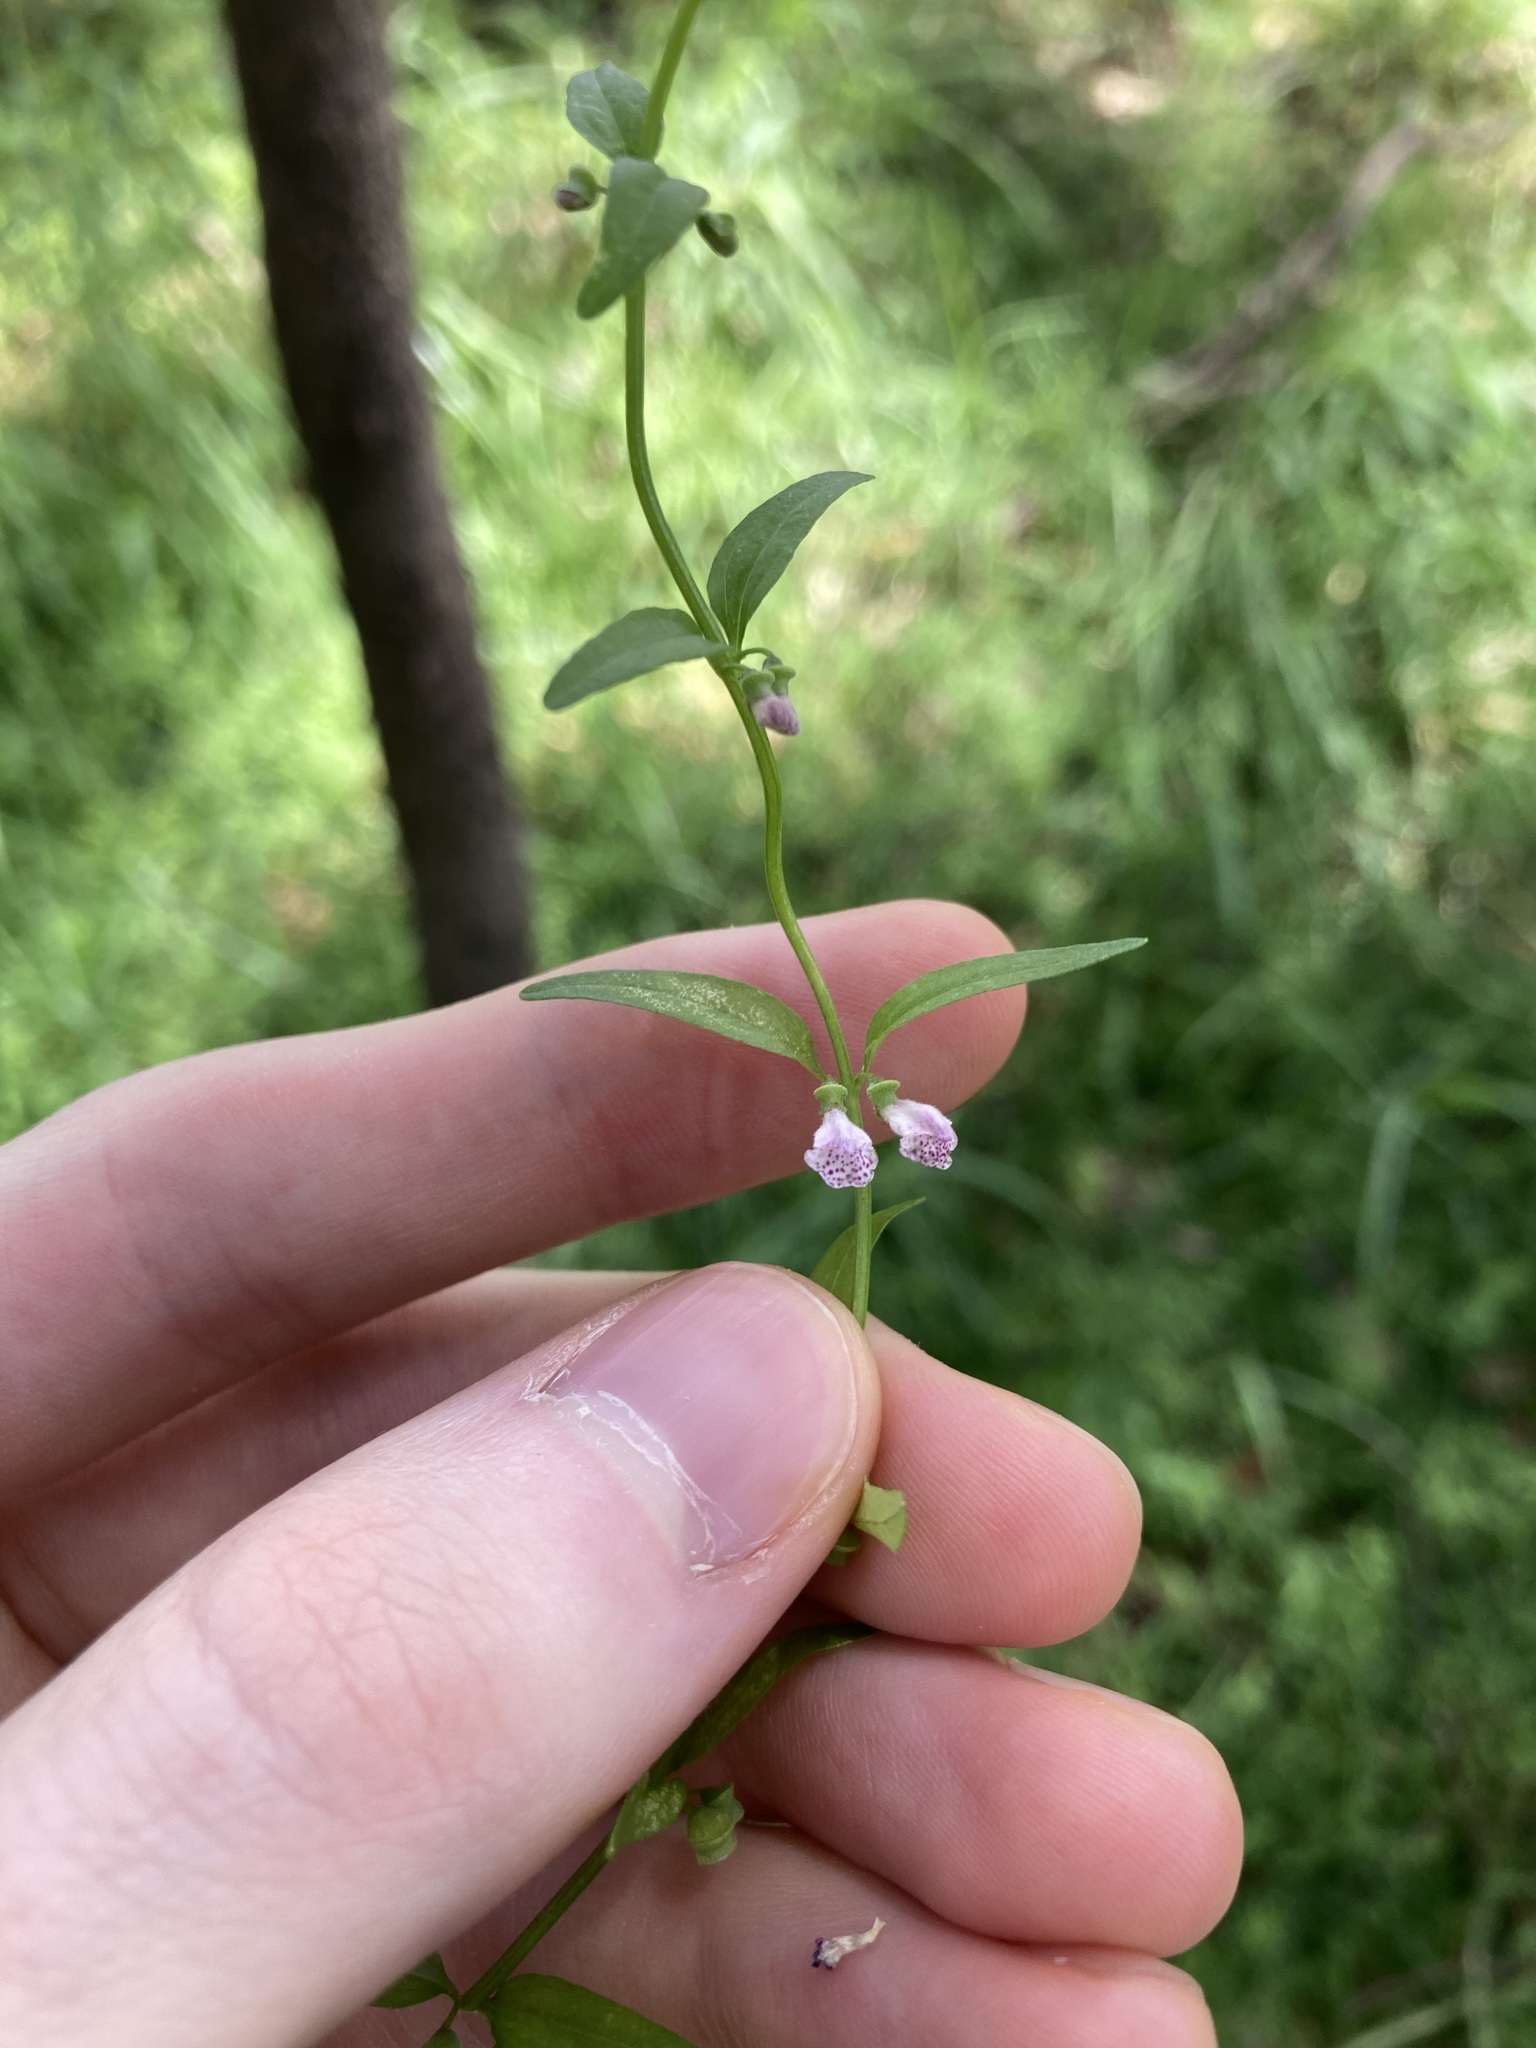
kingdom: Plantae
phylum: Tracheophyta
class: Magnoliopsida
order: Lamiales
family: Lamiaceae
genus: Scutellaria
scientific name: Scutellaria racemosa
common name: South american skullcap
